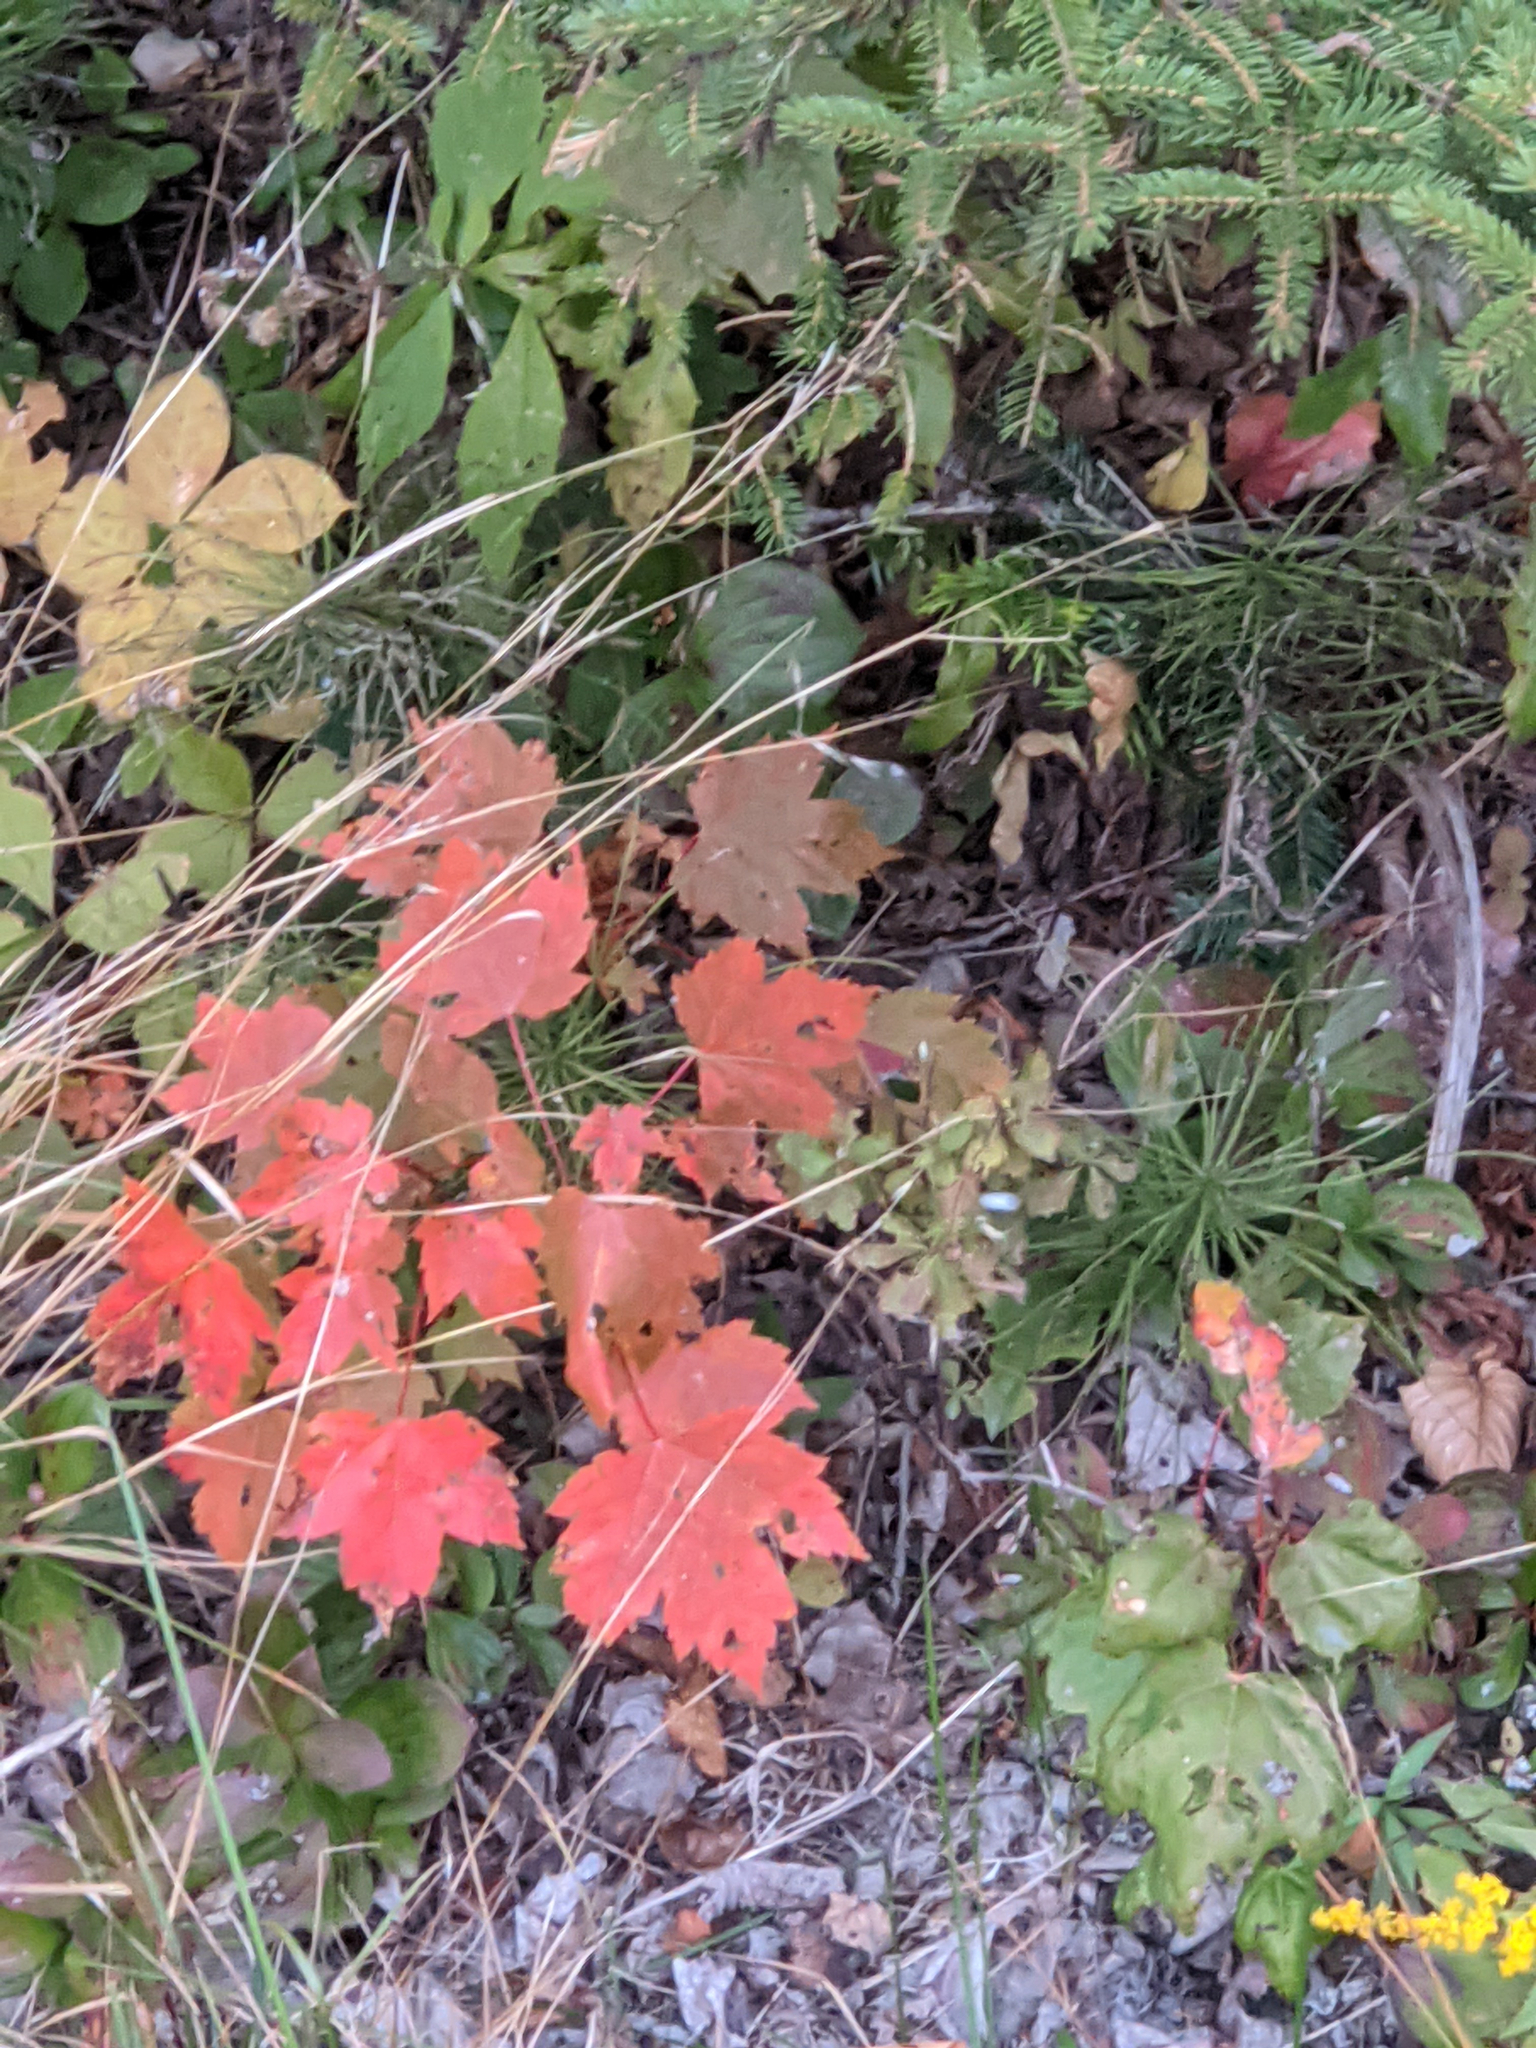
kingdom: Plantae
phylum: Tracheophyta
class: Magnoliopsida
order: Sapindales
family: Sapindaceae
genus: Acer
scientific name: Acer rubrum
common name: Red maple
